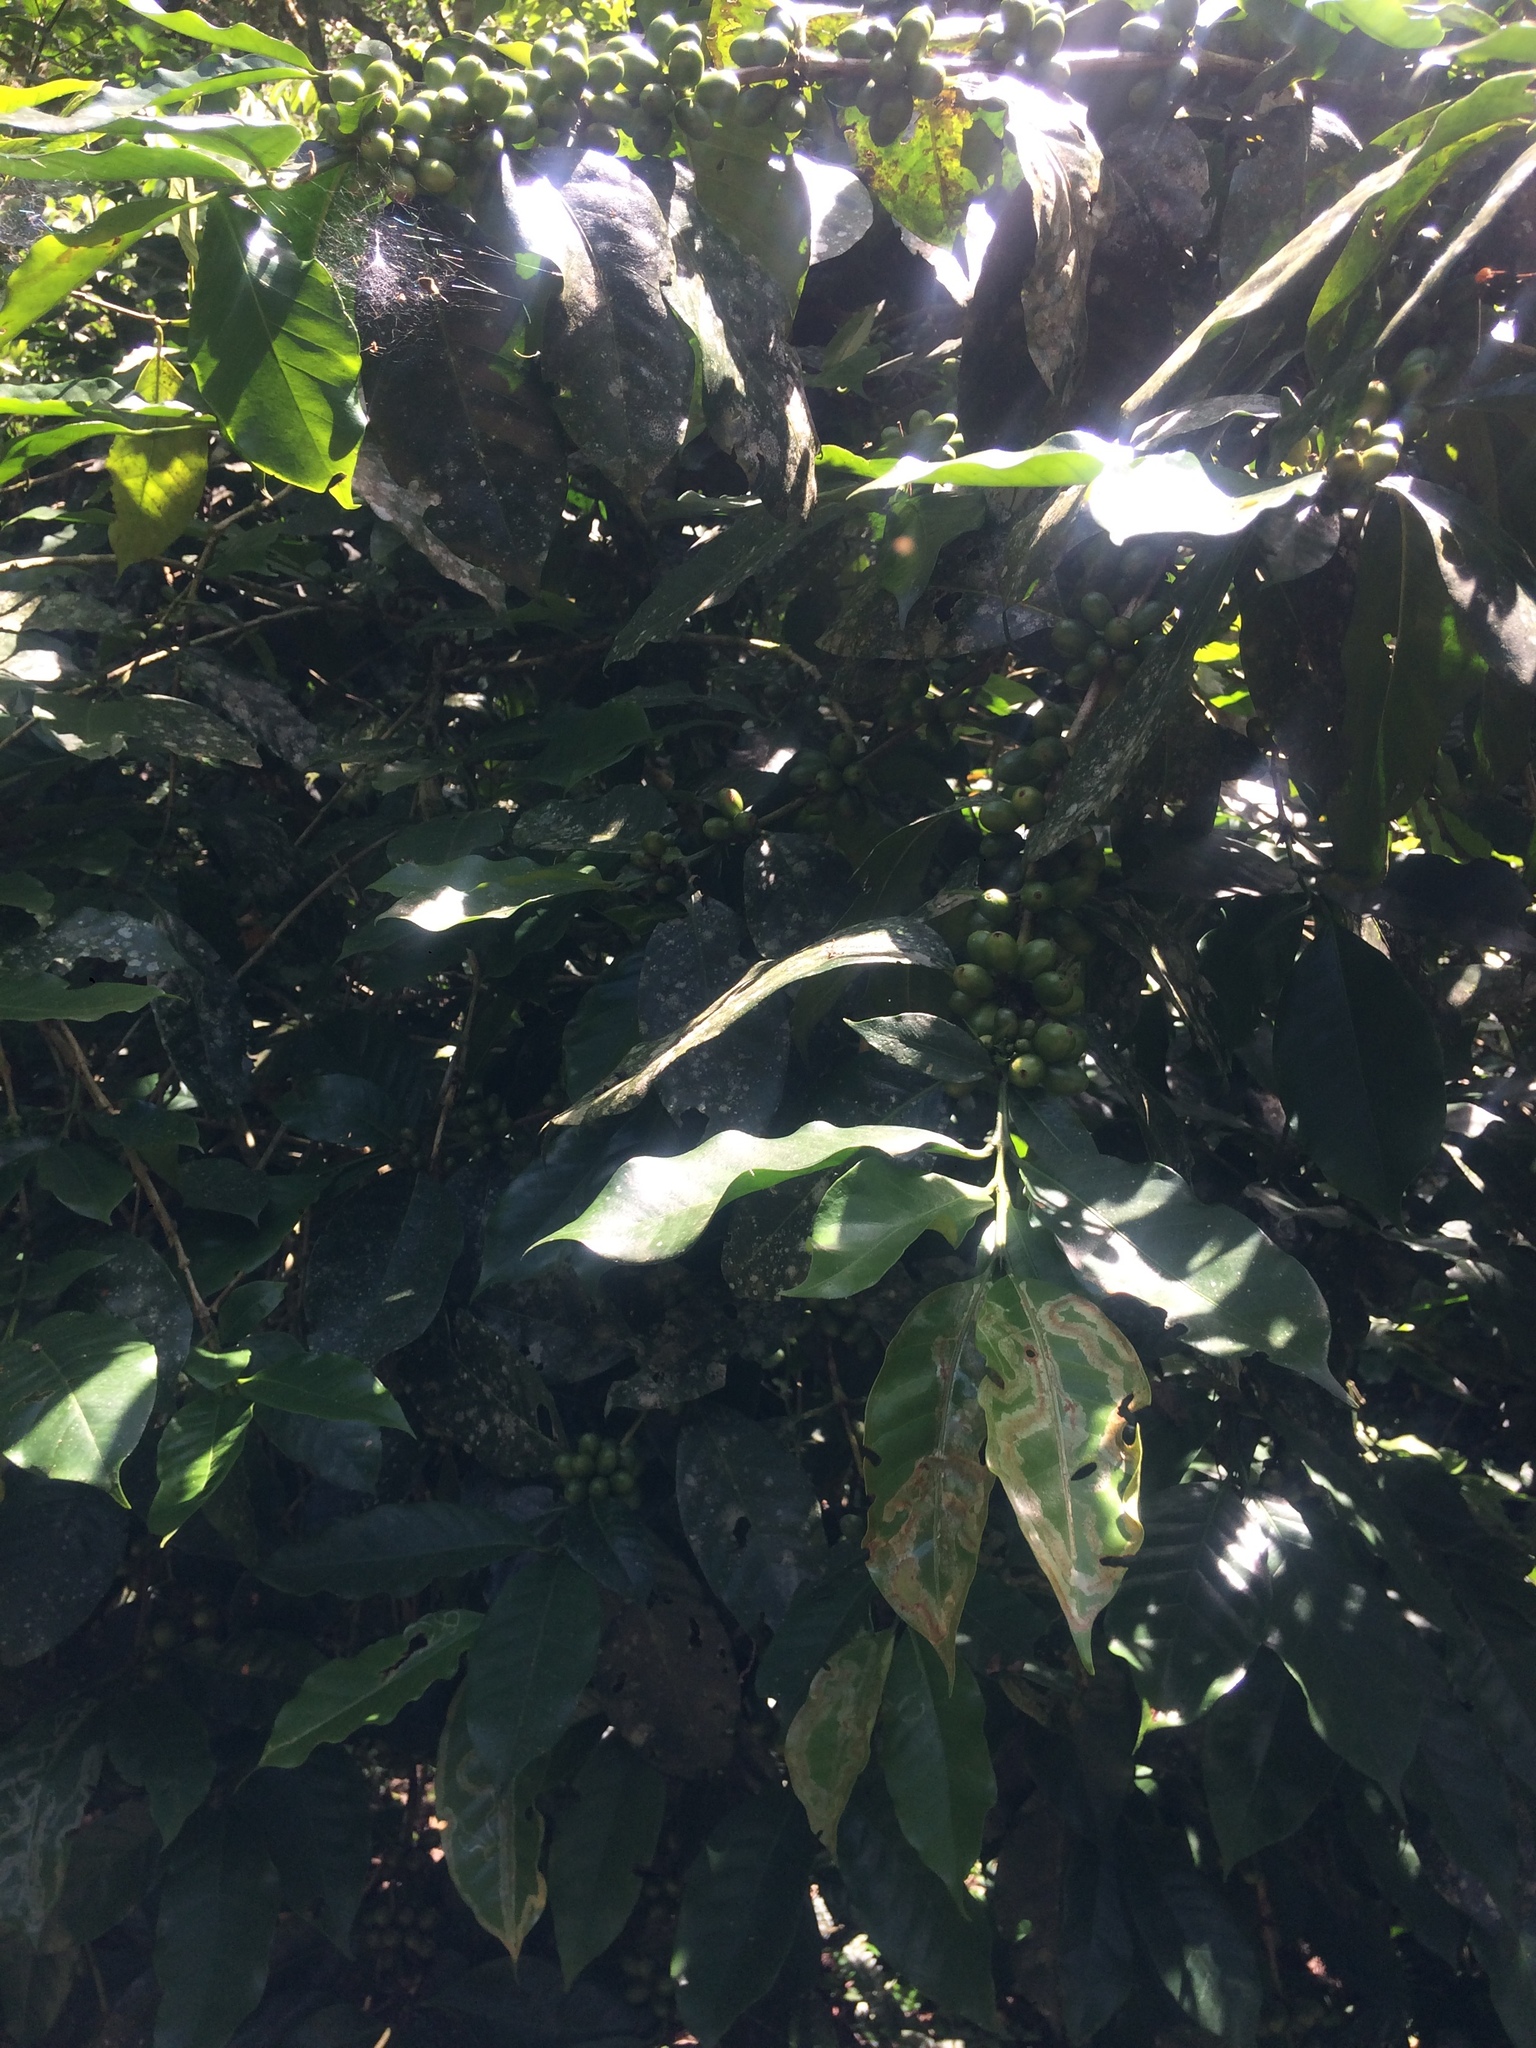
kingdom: Plantae
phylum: Tracheophyta
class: Magnoliopsida
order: Gentianales
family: Rubiaceae
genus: Coffea
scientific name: Coffea arabica
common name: Coffee
